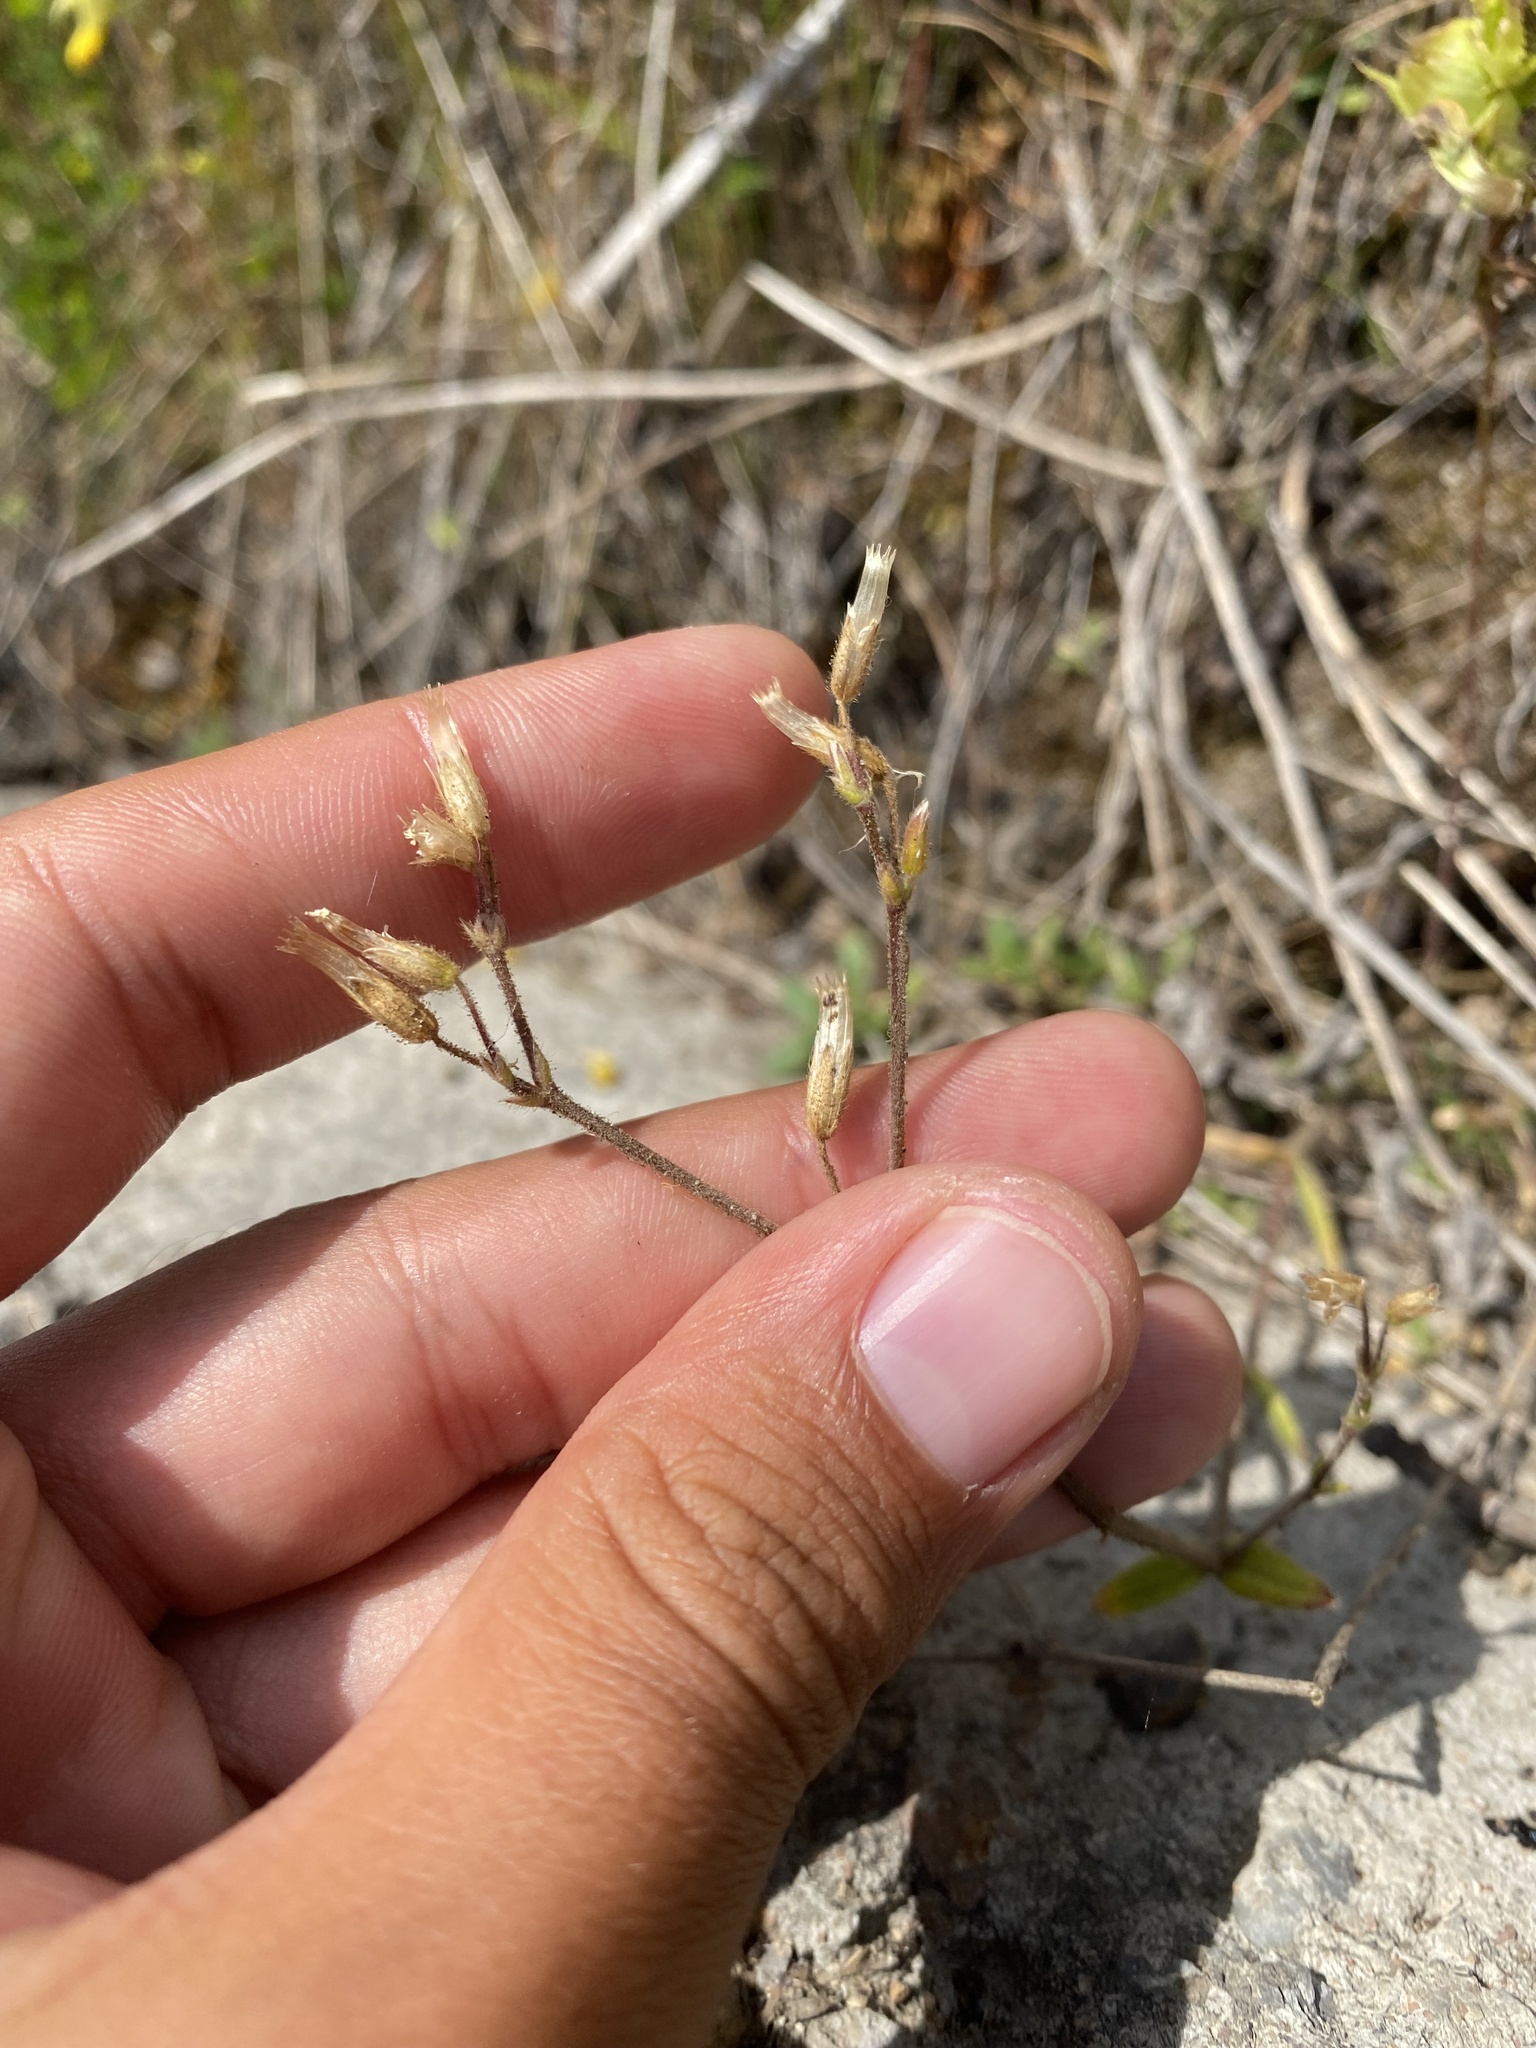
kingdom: Plantae
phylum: Tracheophyta
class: Magnoliopsida
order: Caryophyllales
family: Caryophyllaceae
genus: Cerastium
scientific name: Cerastium holosteoides
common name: Big chickweed
